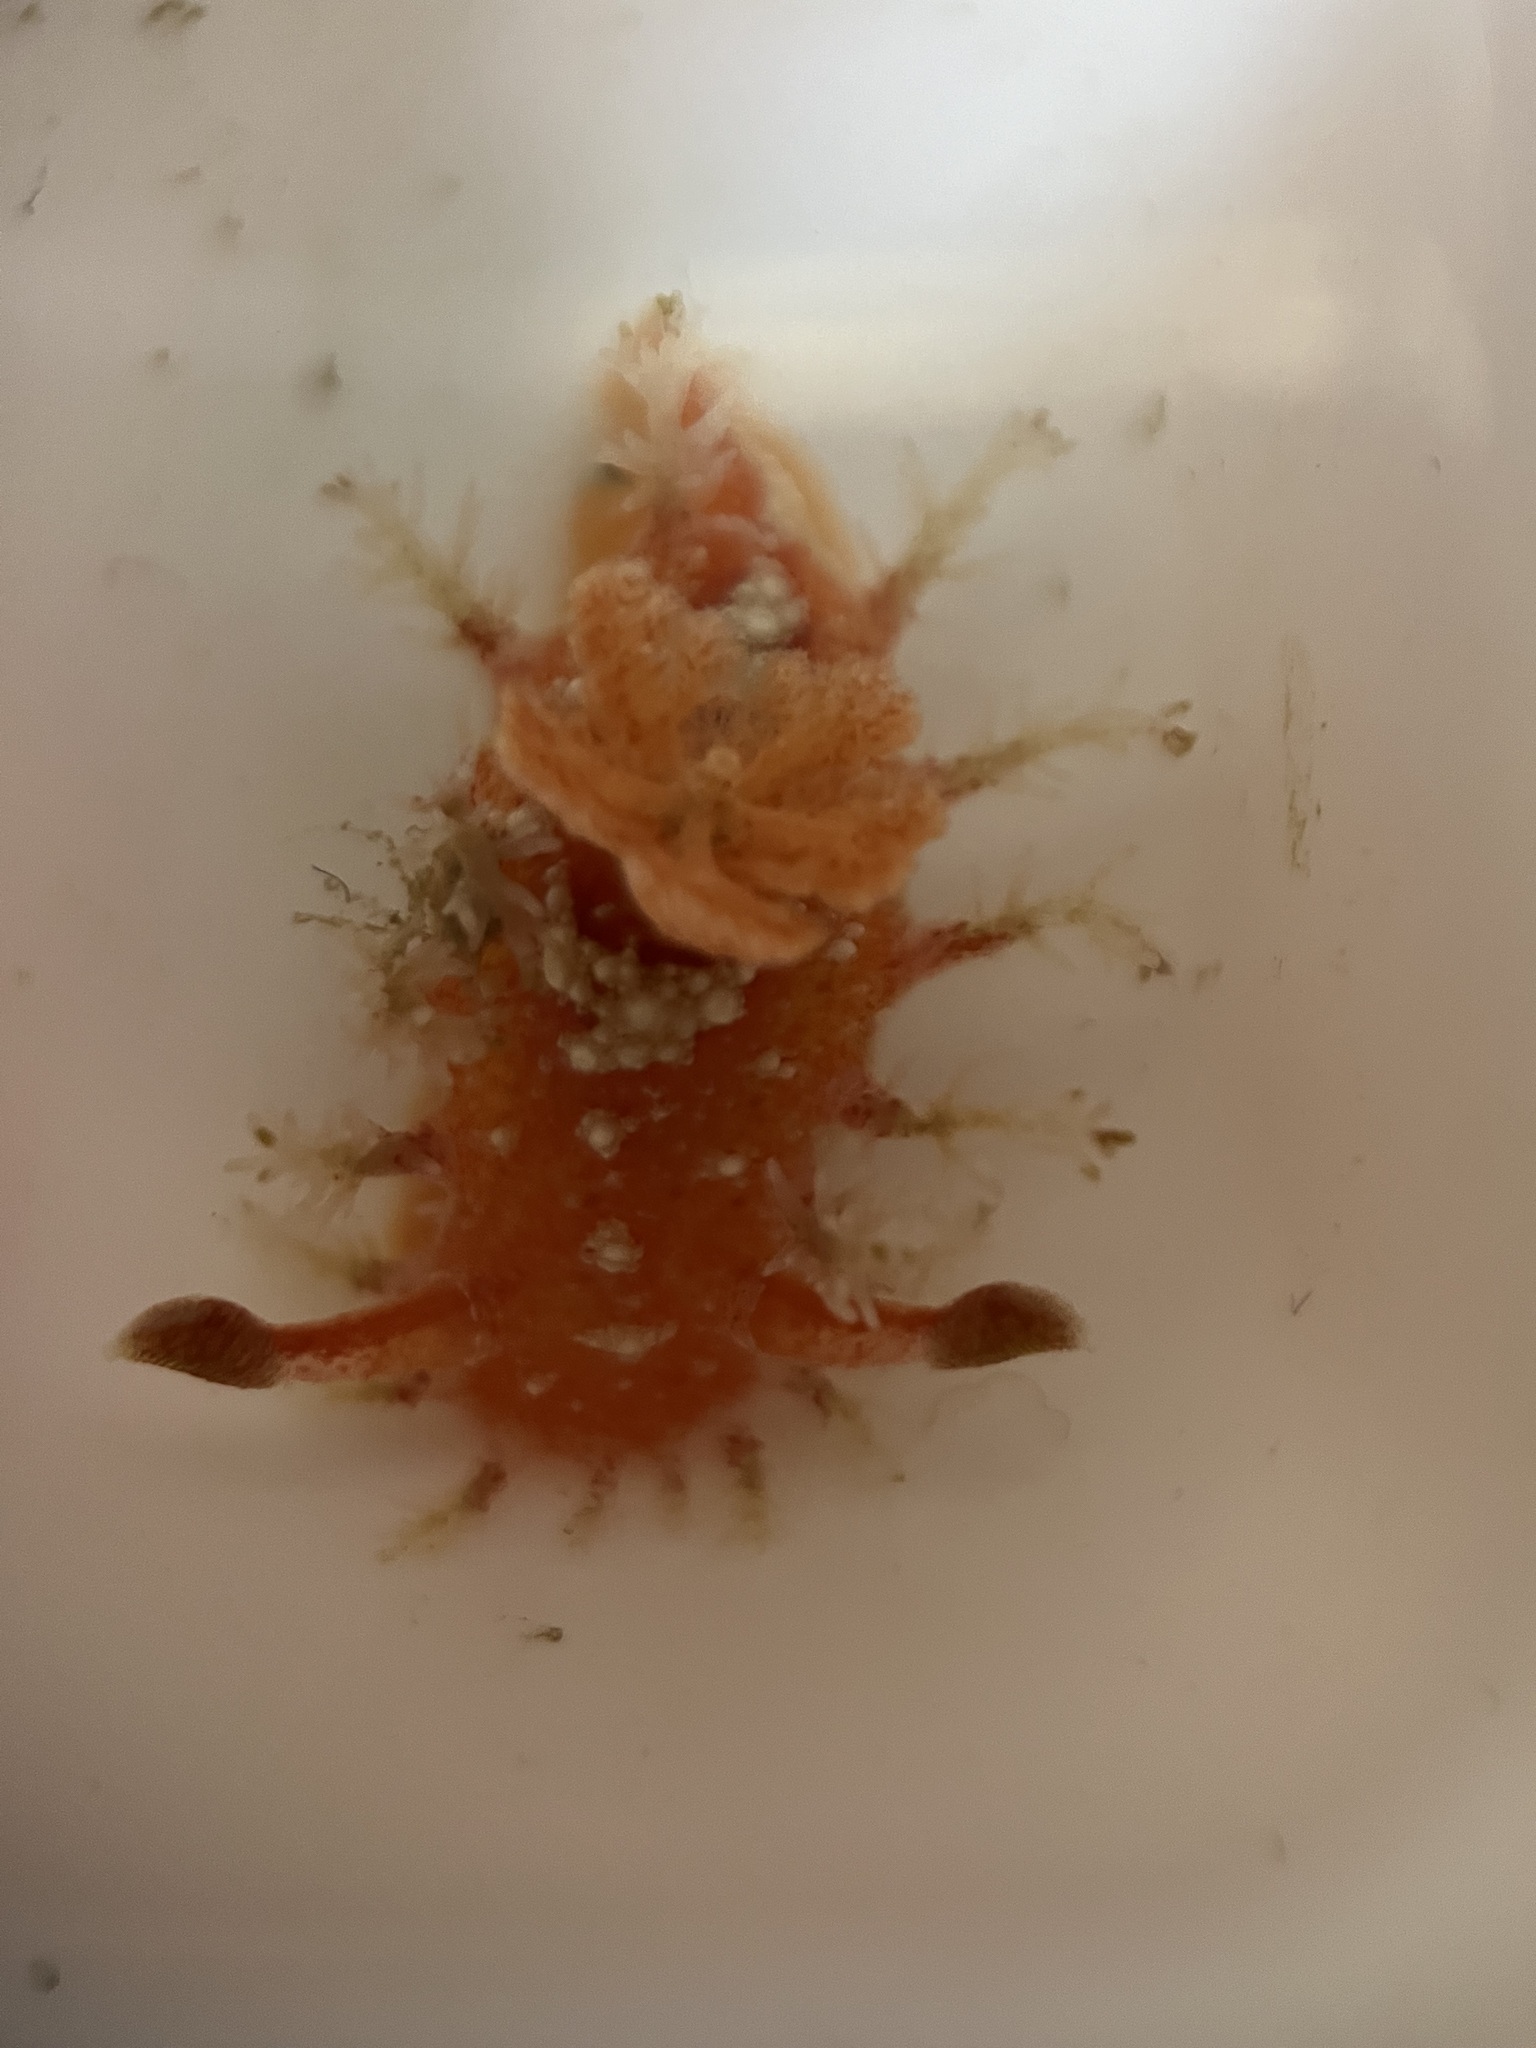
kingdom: Animalia
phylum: Mollusca
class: Gastropoda
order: Nudibranchia
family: Polyceridae
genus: Kaloplocamus
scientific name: Kaloplocamus ramosus
